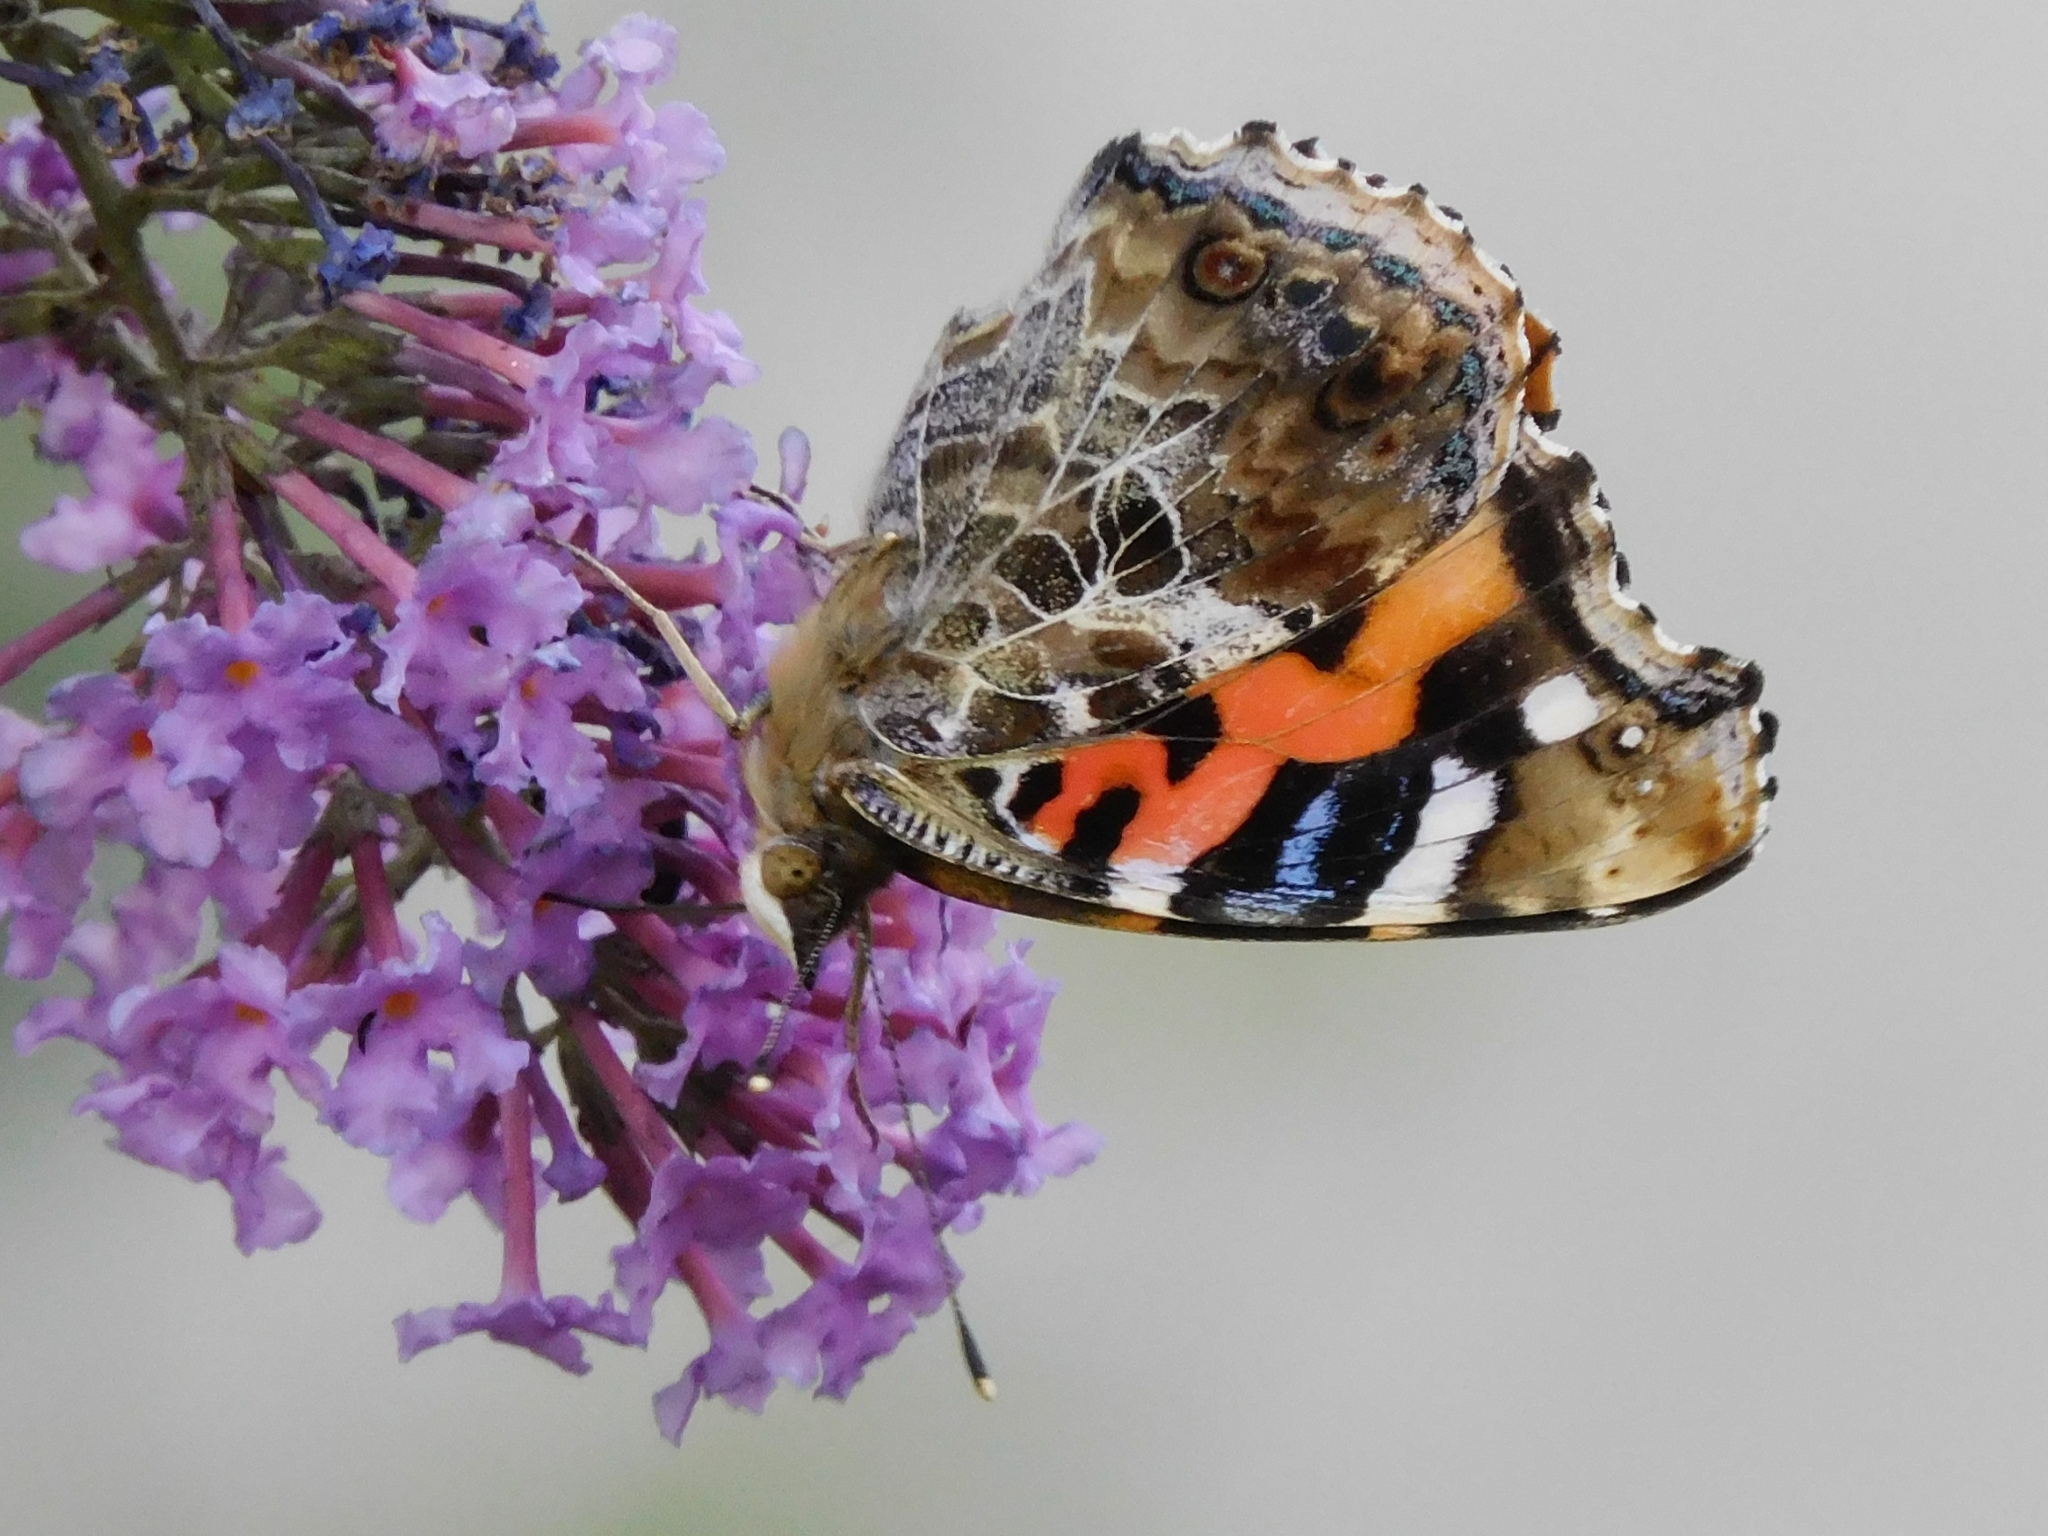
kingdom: Animalia
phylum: Arthropoda
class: Insecta
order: Lepidoptera
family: Nymphalidae
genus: Vanessa
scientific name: Vanessa indica
